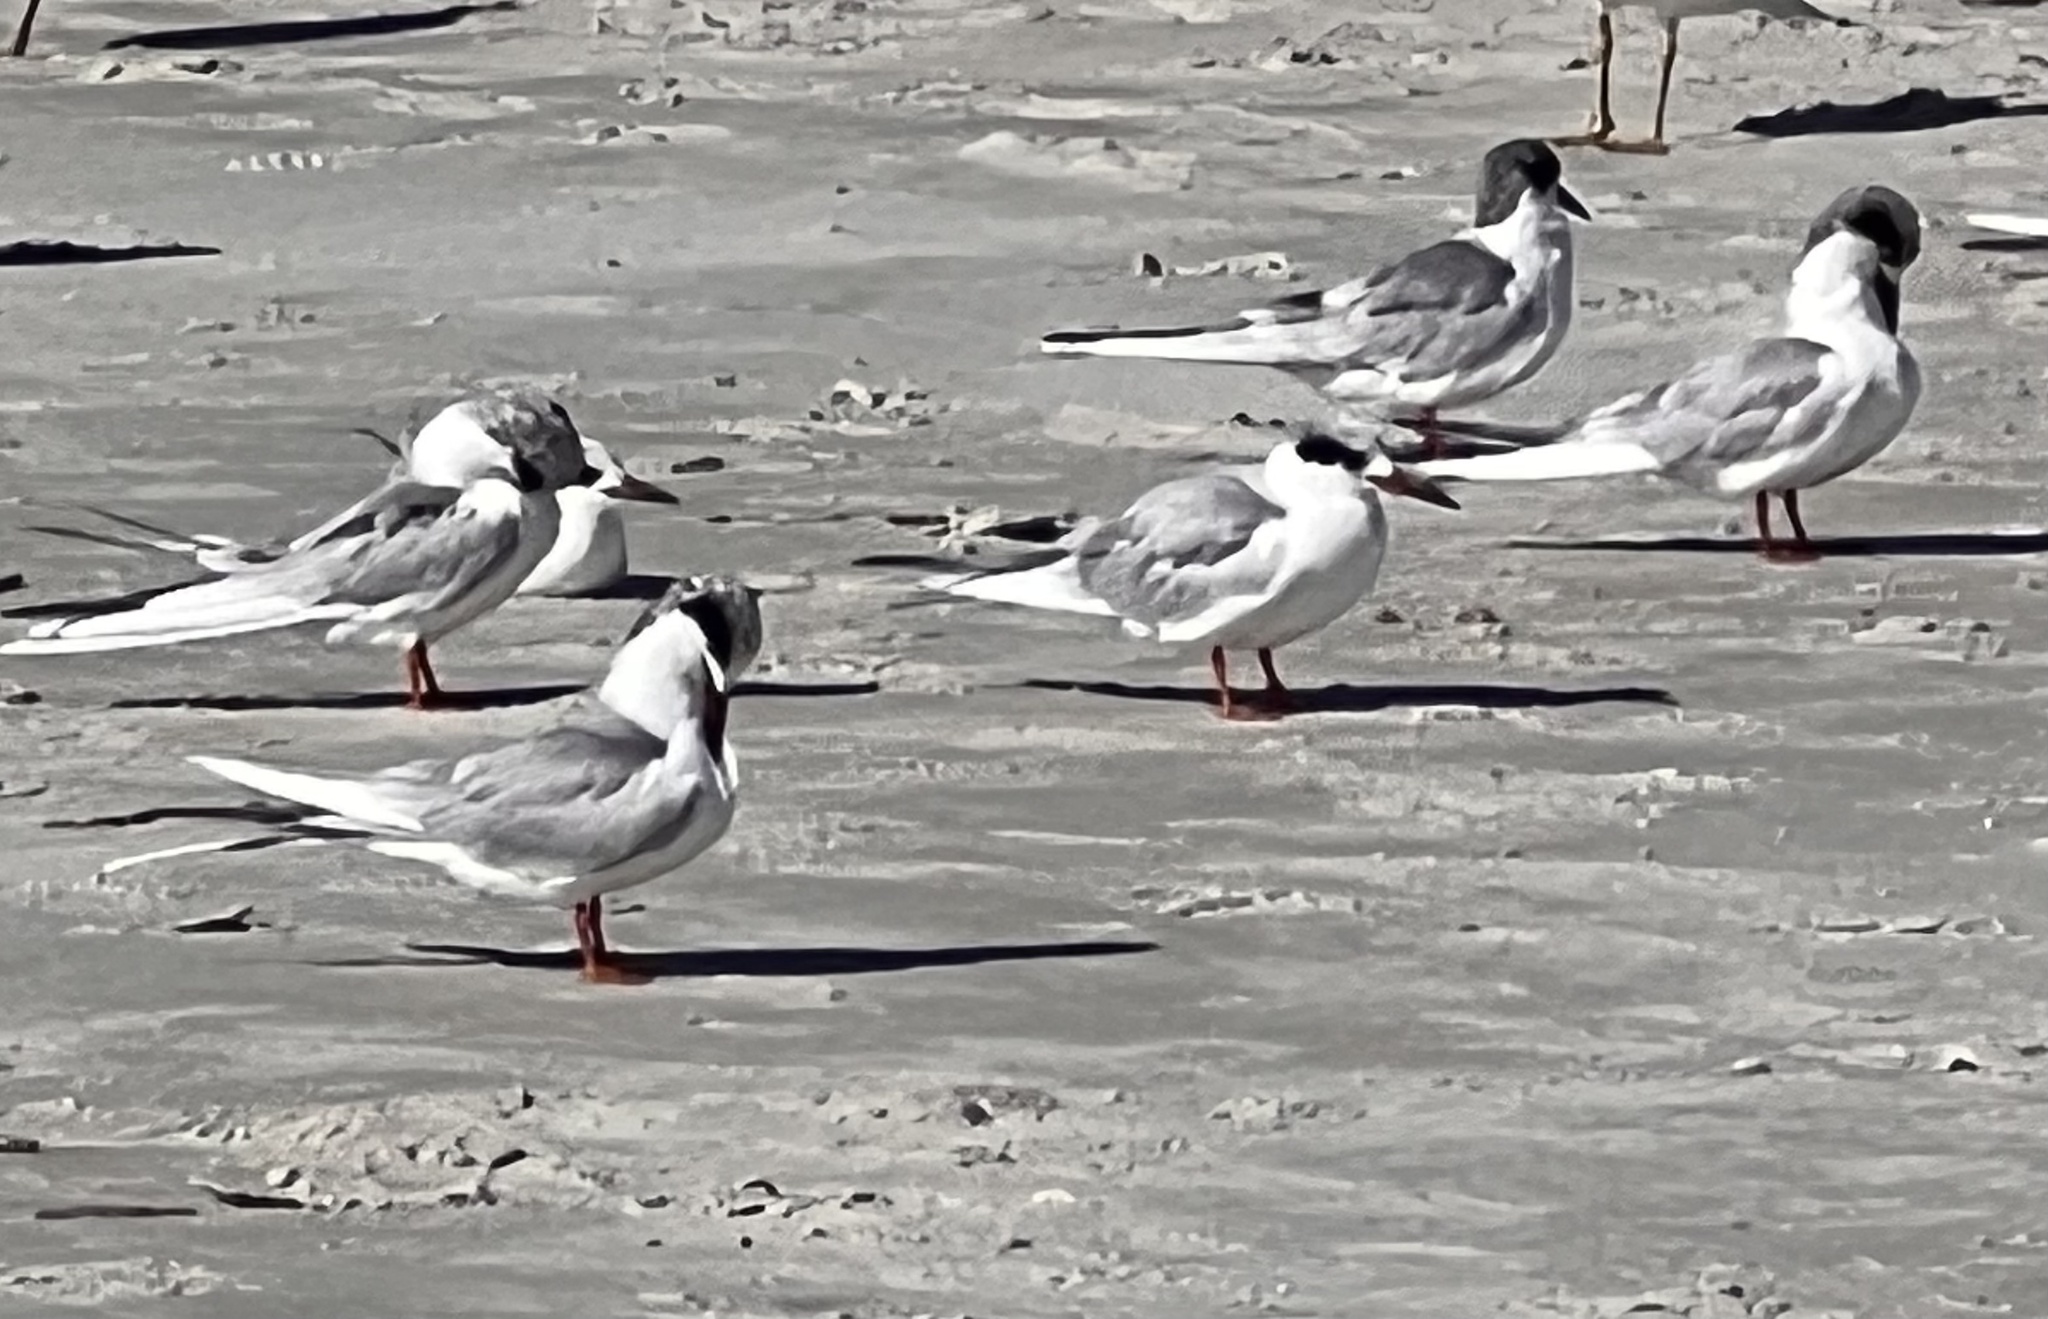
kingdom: Animalia
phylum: Chordata
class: Aves
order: Charadriiformes
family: Laridae
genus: Sterna
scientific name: Sterna forsteri
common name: Forster's tern
